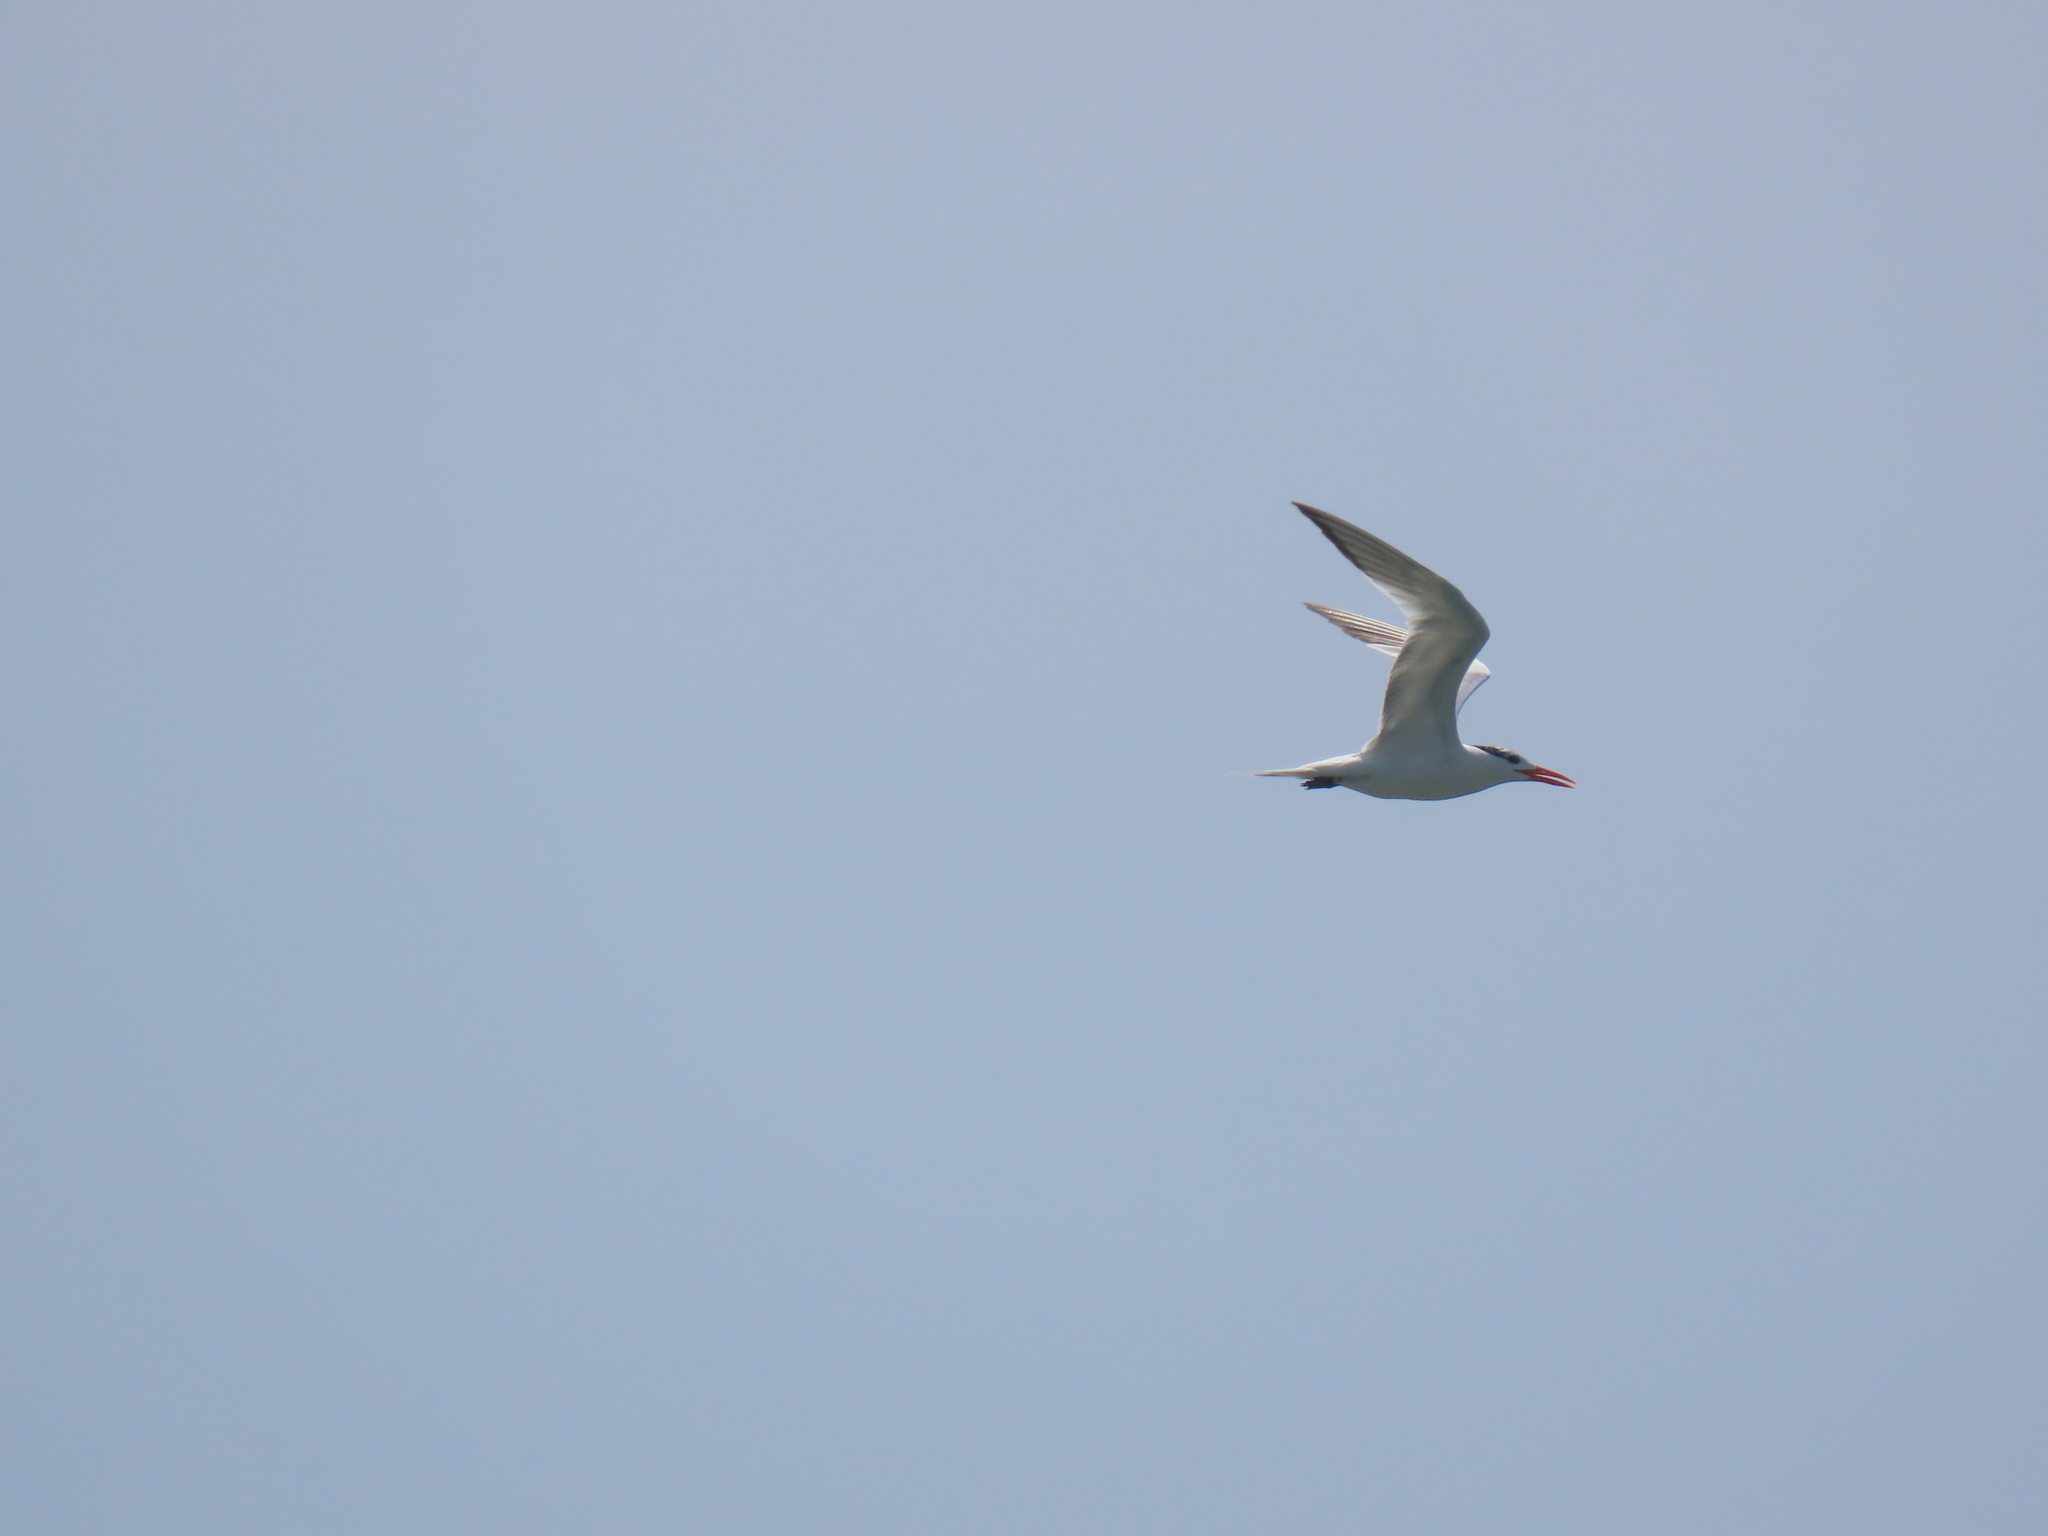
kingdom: Animalia
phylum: Chordata
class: Aves
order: Charadriiformes
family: Laridae
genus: Thalasseus
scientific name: Thalasseus maximus
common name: Royal tern
